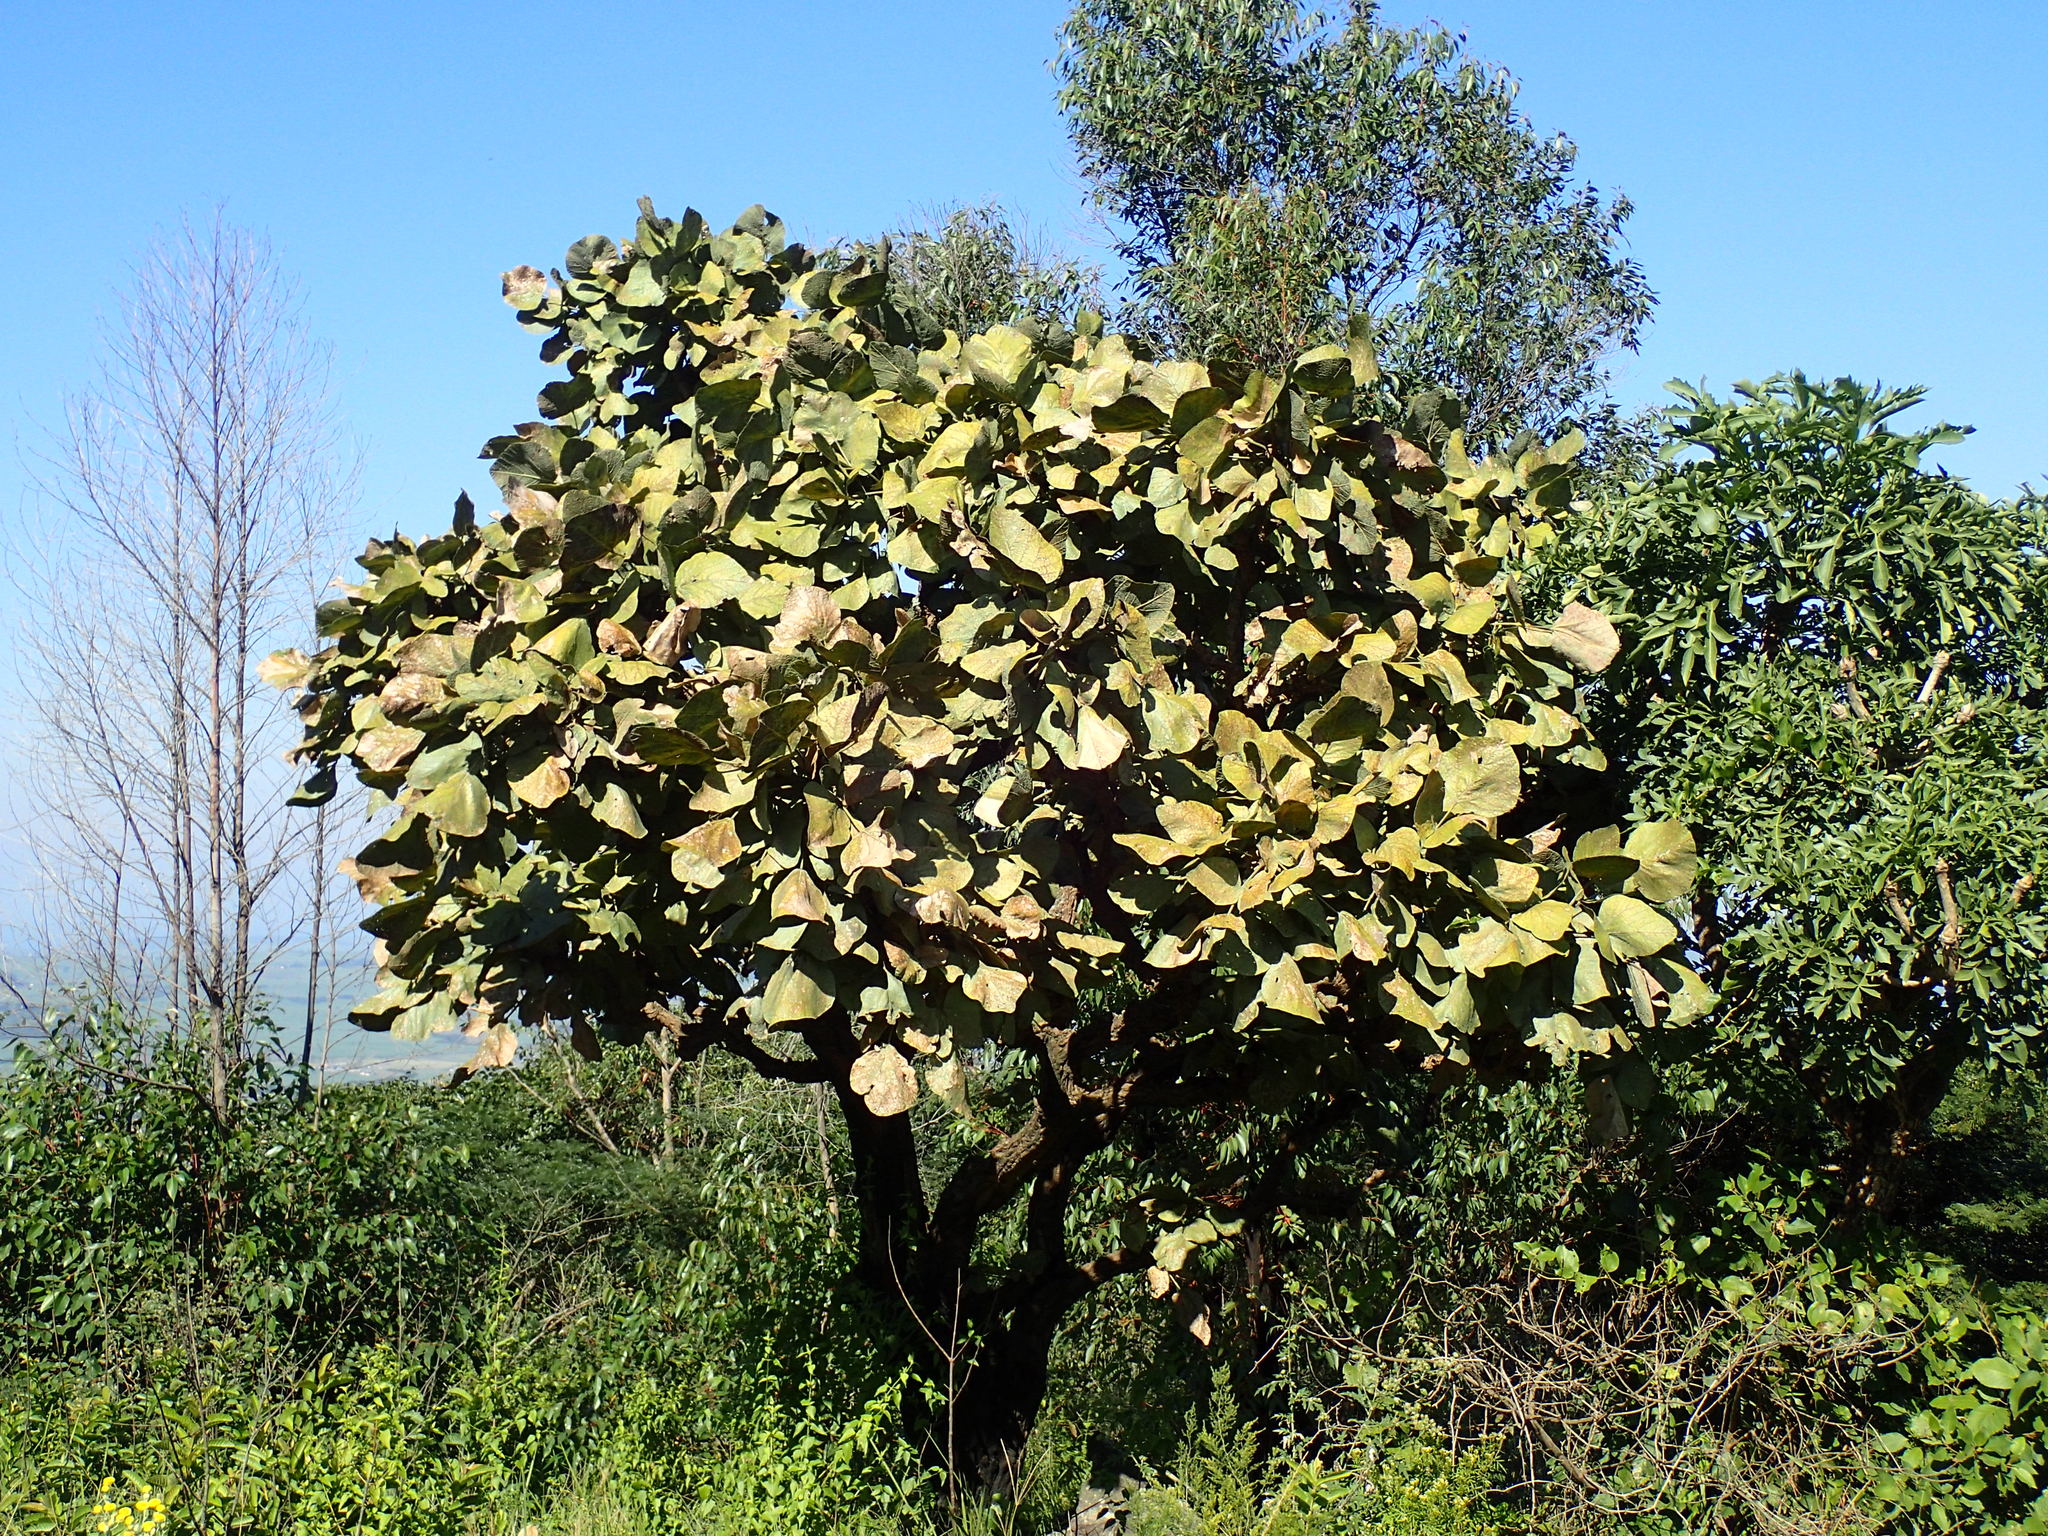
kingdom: Plantae
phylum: Tracheophyta
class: Magnoliopsida
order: Fabales
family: Fabaceae
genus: Erythrina
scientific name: Erythrina latissima
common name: Broad-leaved coral tree
